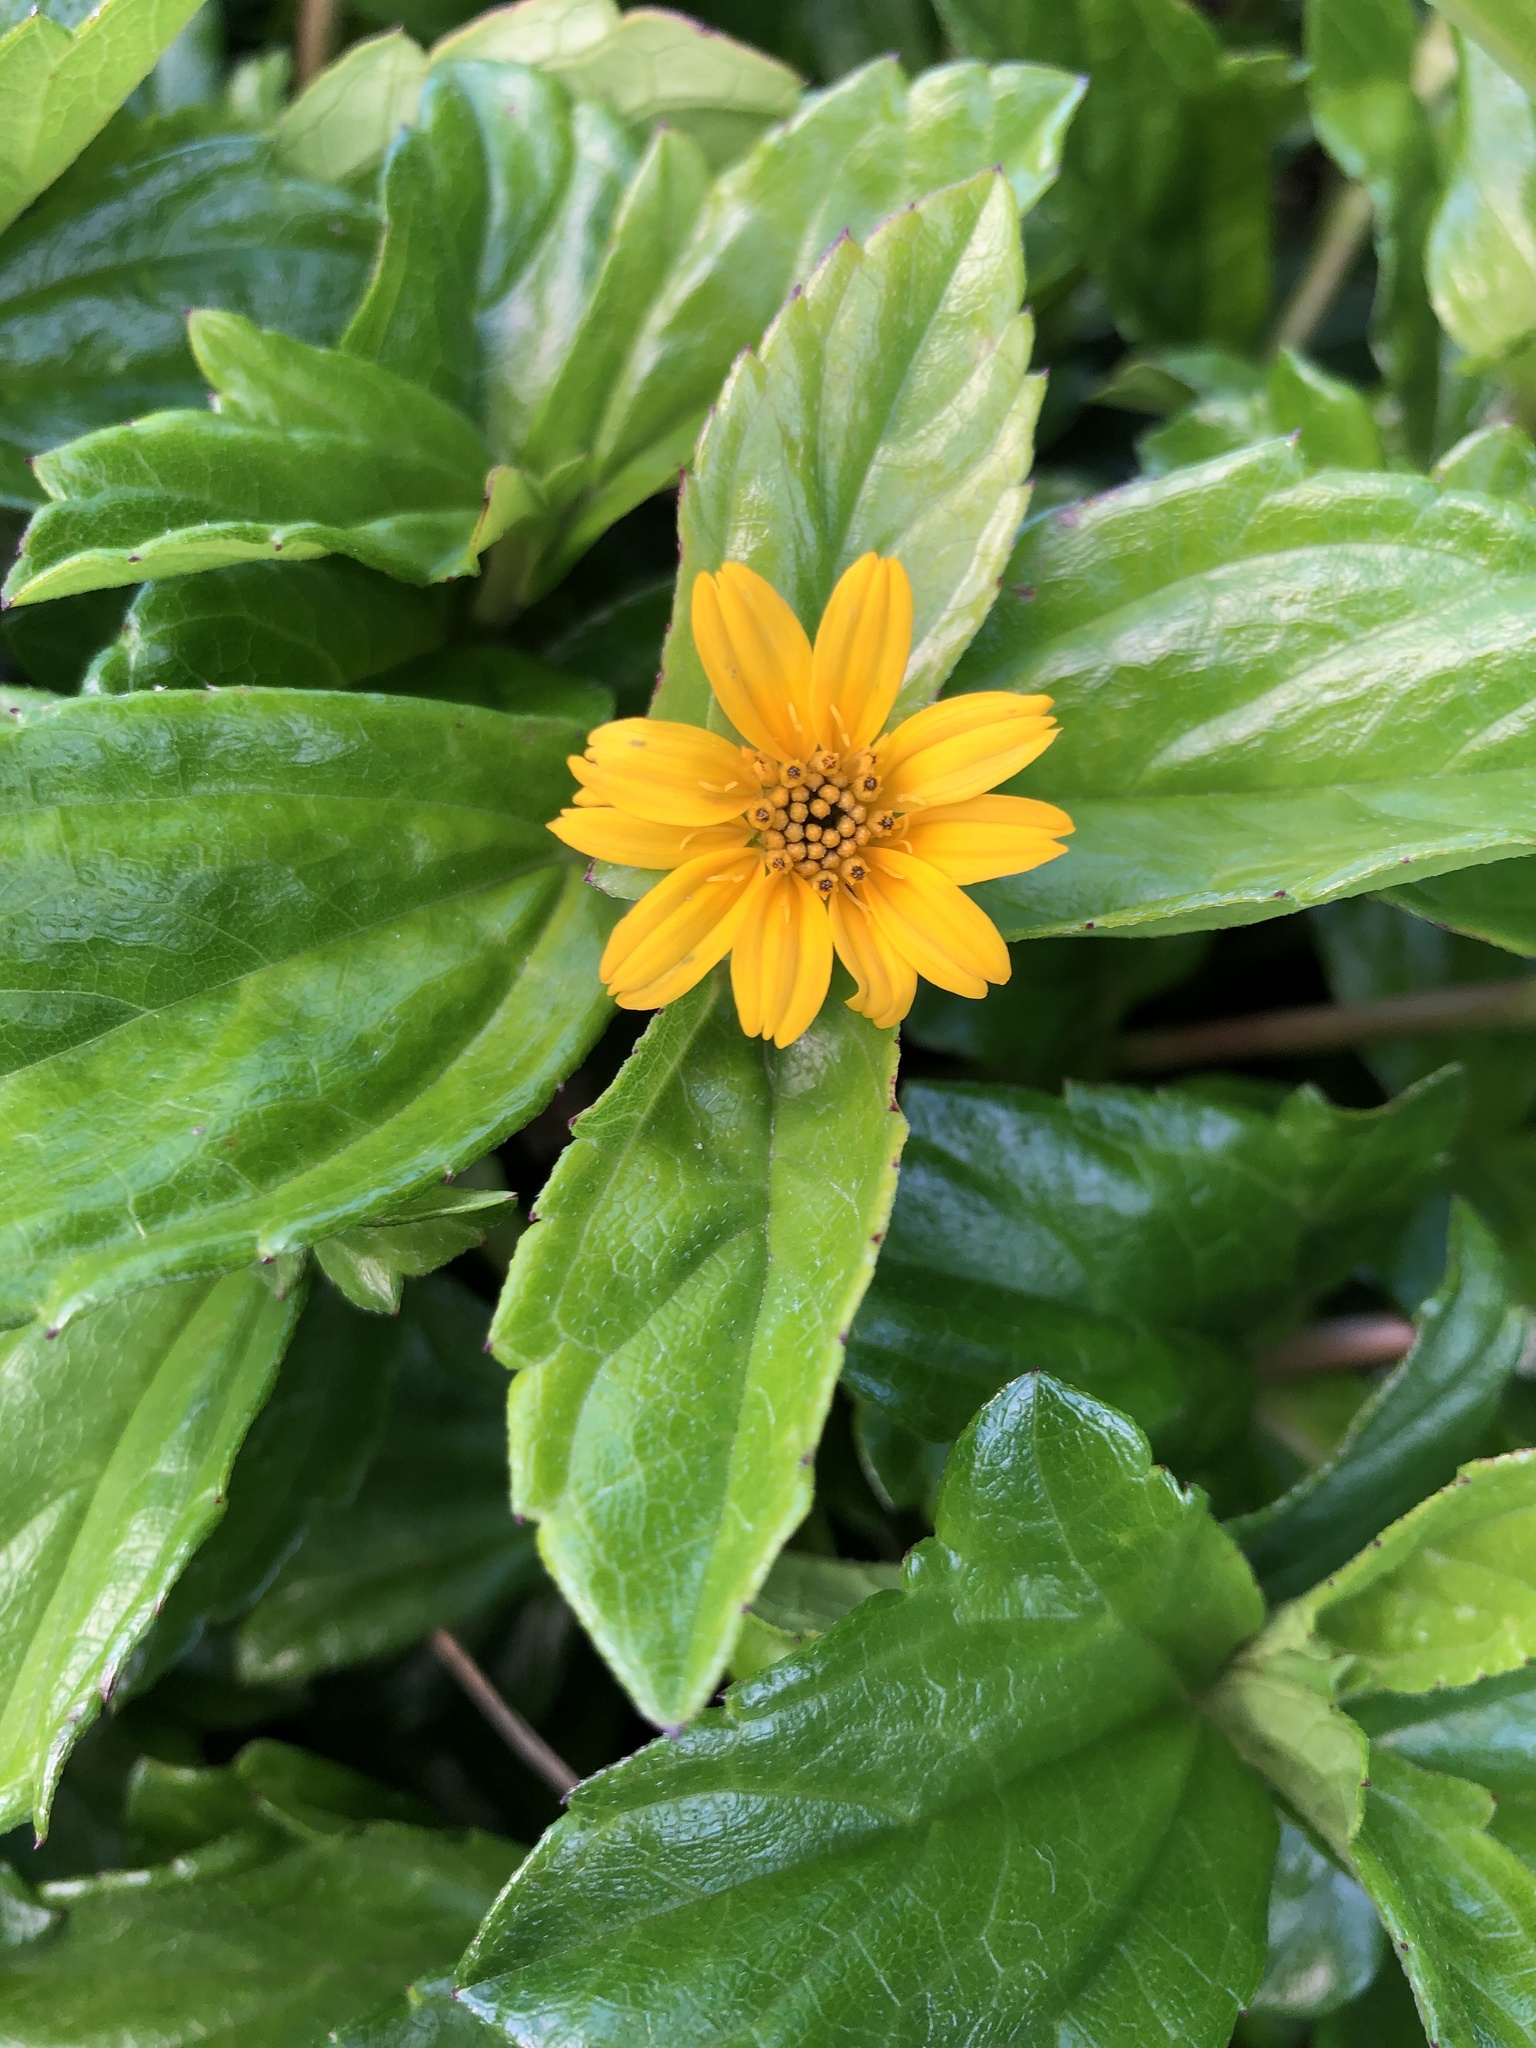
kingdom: Plantae
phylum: Tracheophyta
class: Magnoliopsida
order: Asterales
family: Asteraceae
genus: Sphagneticola
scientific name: Sphagneticola trilobata
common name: Bay biscayne creeping-oxeye
